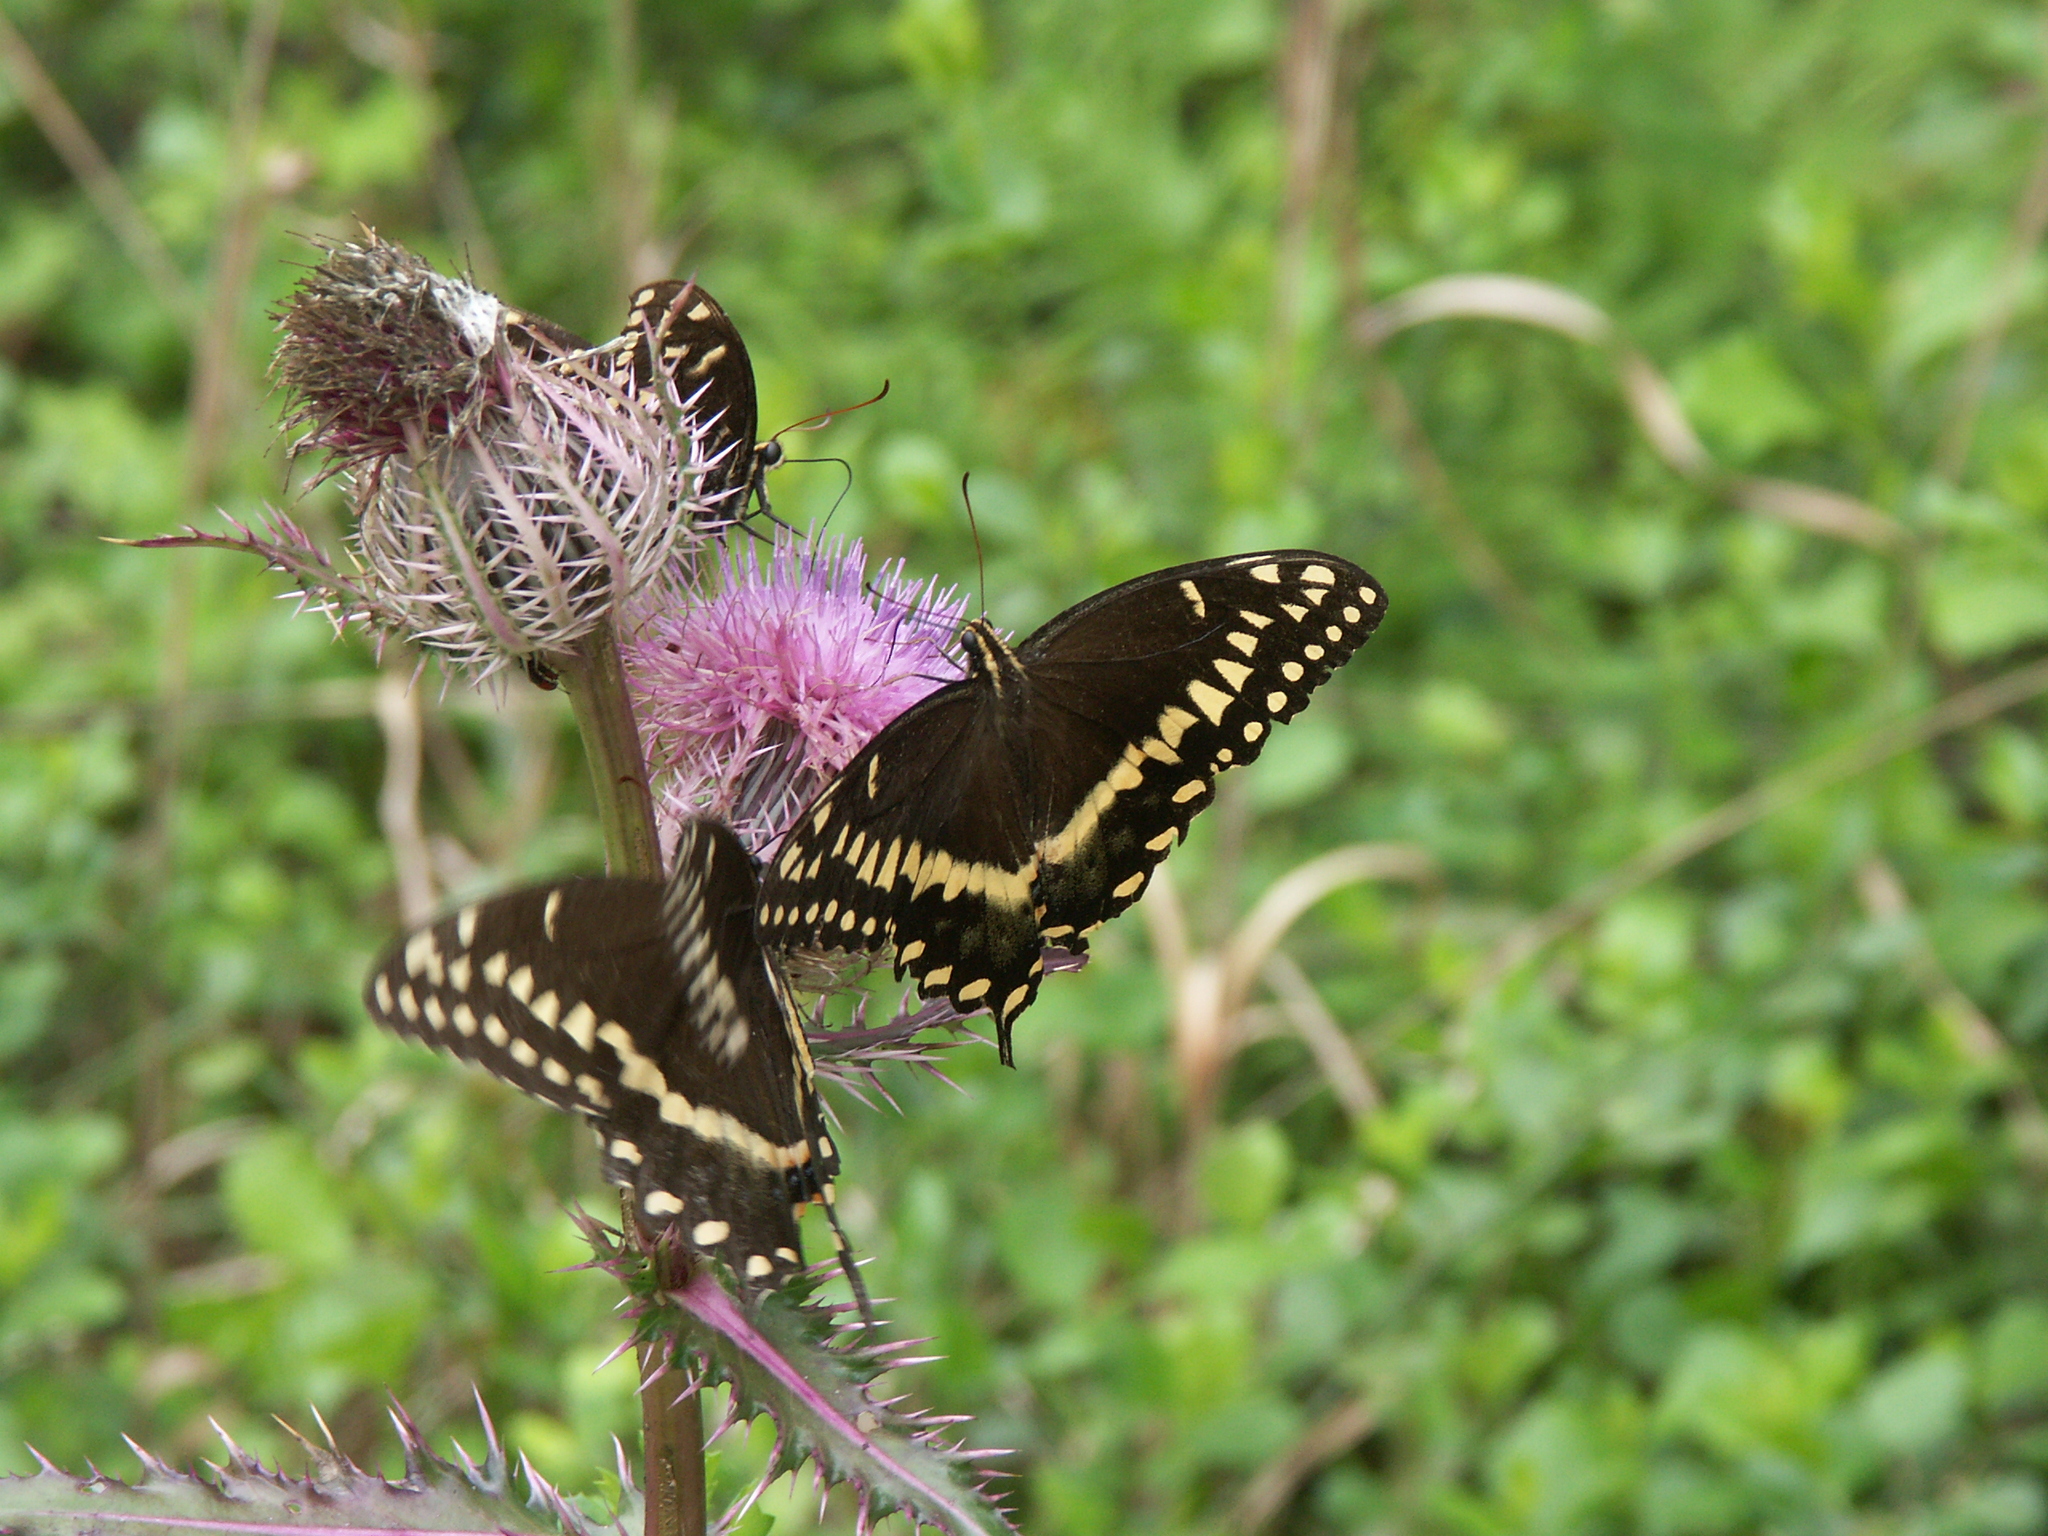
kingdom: Plantae
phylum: Tracheophyta
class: Magnoliopsida
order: Asterales
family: Asteraceae
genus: Cirsium
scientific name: Cirsium horridulum
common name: Bristly thistle
